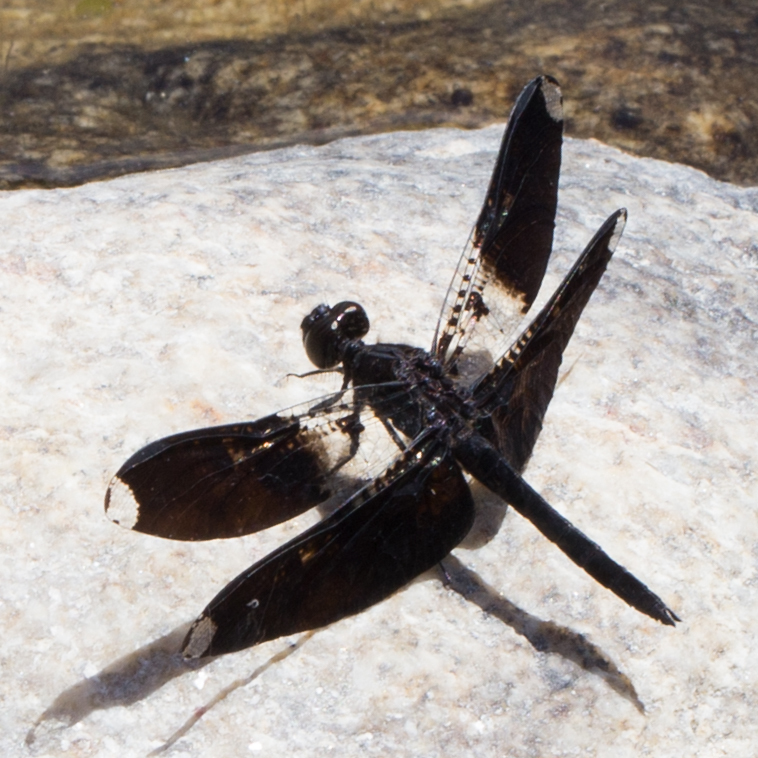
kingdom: Animalia
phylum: Arthropoda
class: Insecta
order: Odonata
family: Libellulidae
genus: Pseudoleon
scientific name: Pseudoleon superbus
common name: Filigree skimmer
